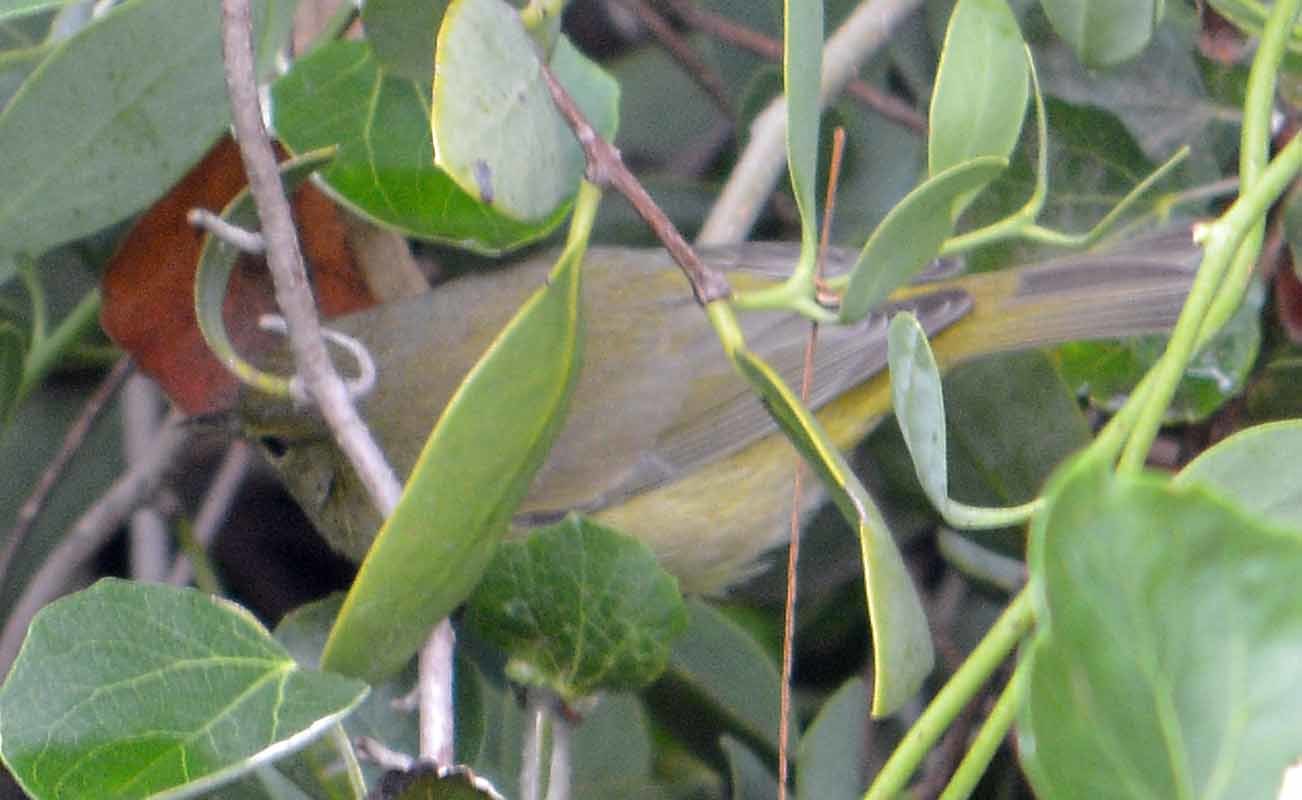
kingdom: Animalia
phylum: Chordata
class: Aves
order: Passeriformes
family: Parulidae
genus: Leiothlypis
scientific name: Leiothlypis celata
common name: Orange-crowned warbler
